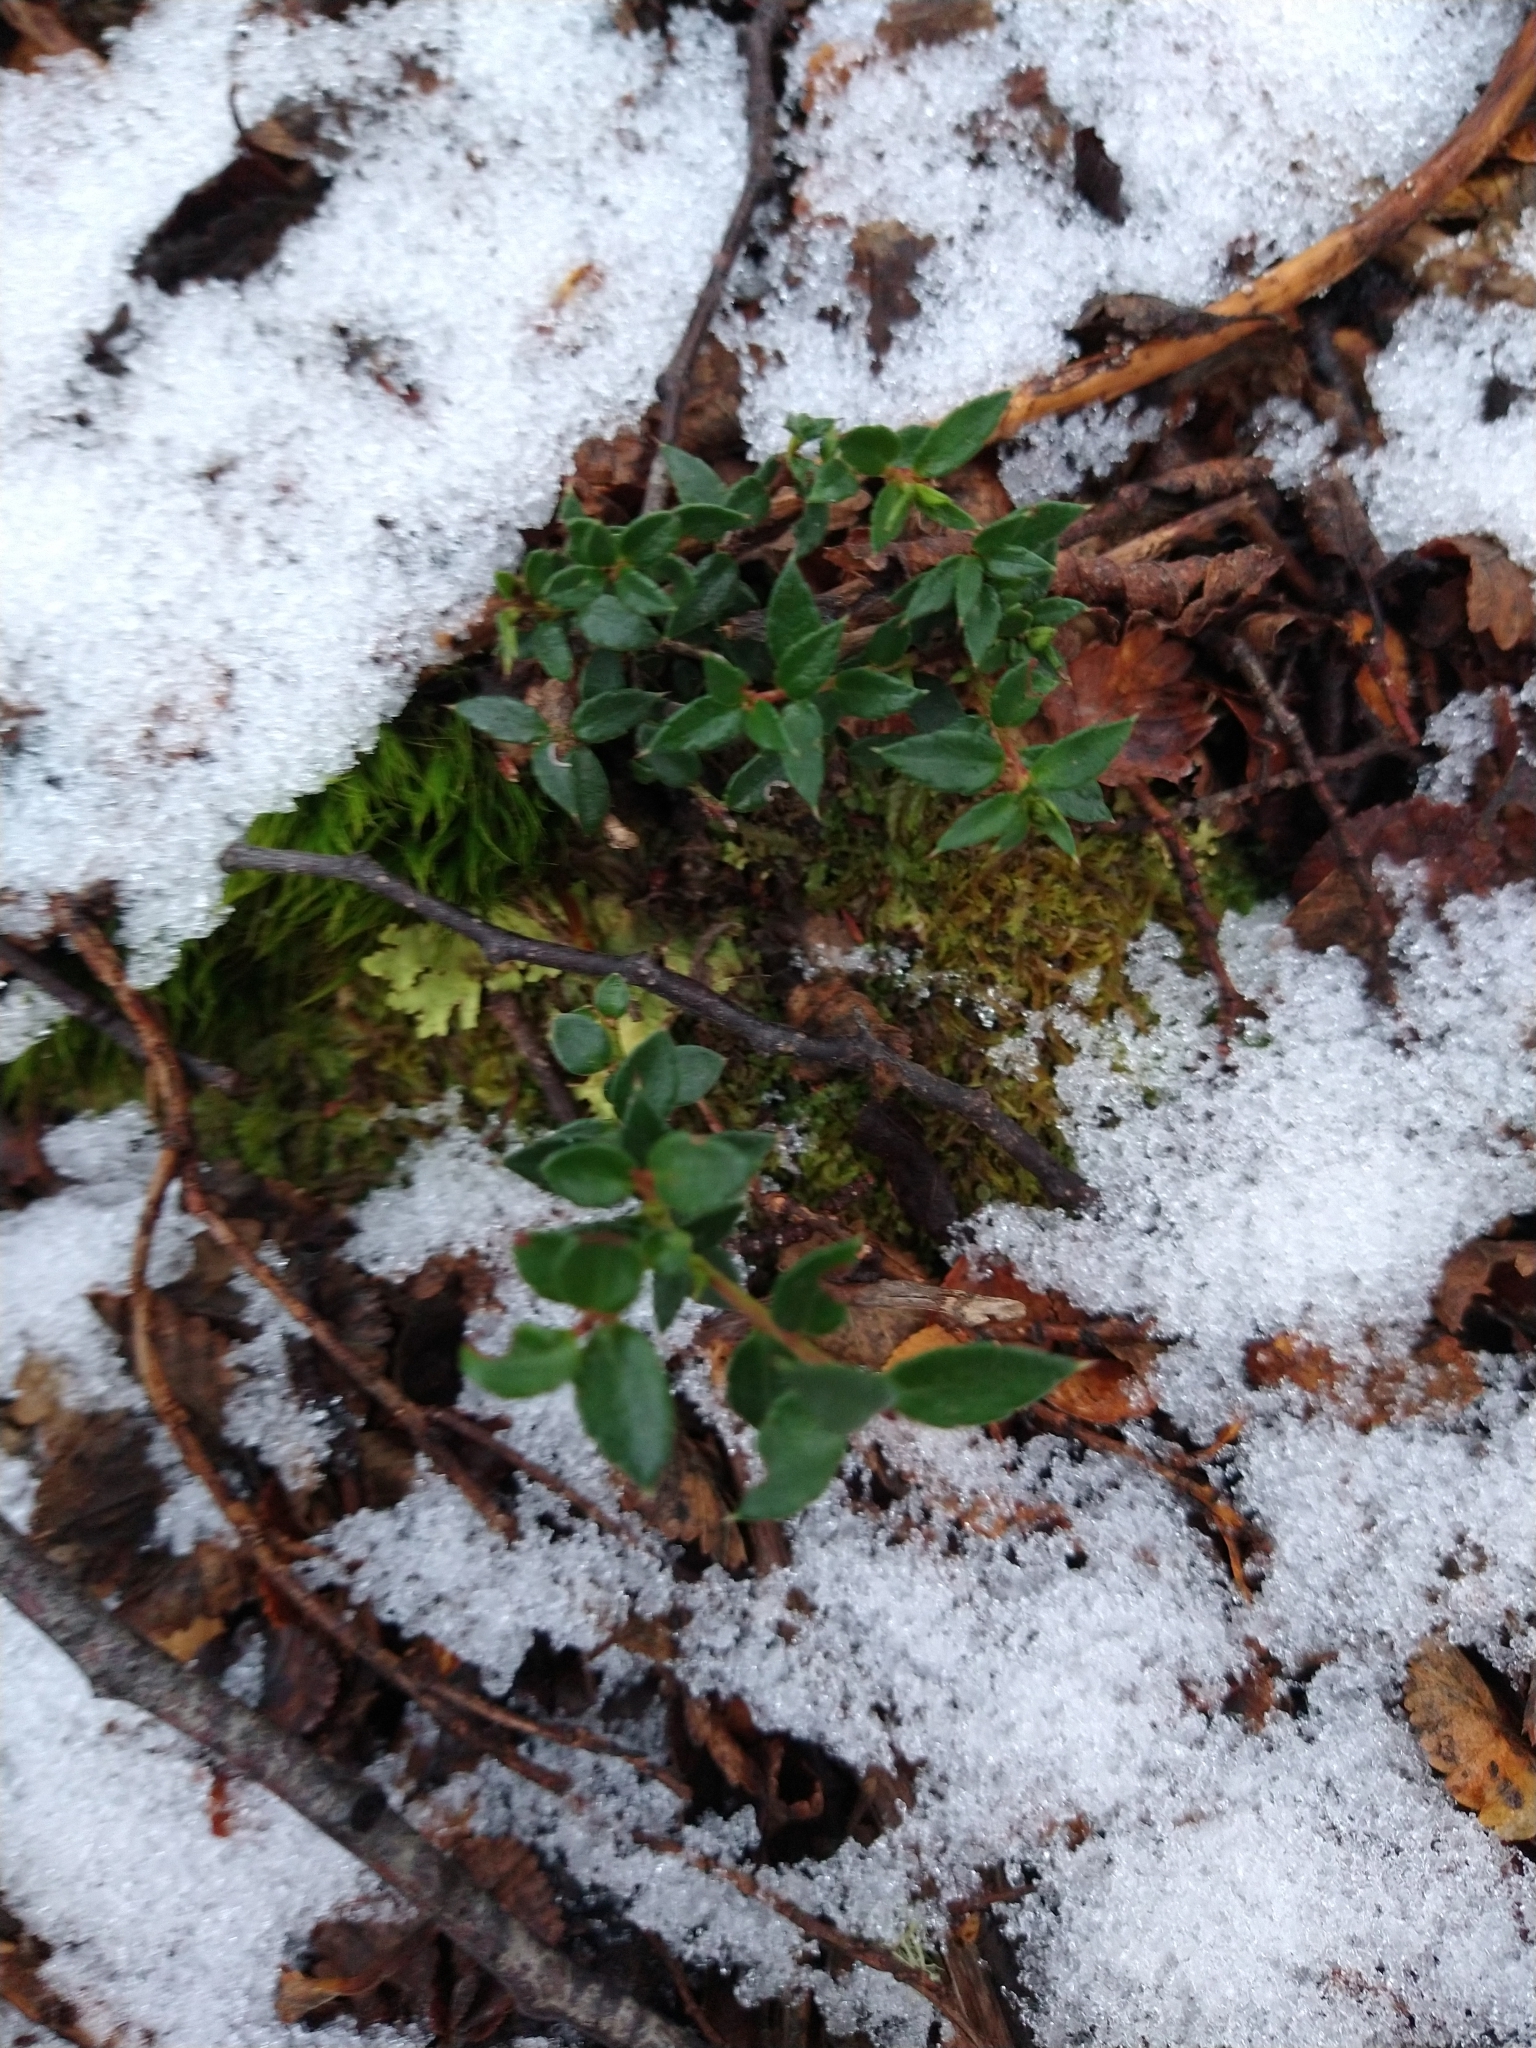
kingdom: Plantae
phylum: Tracheophyta
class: Magnoliopsida
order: Ericales
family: Ericaceae
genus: Gaultheria
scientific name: Gaultheria mucronata
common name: Prickly heath
